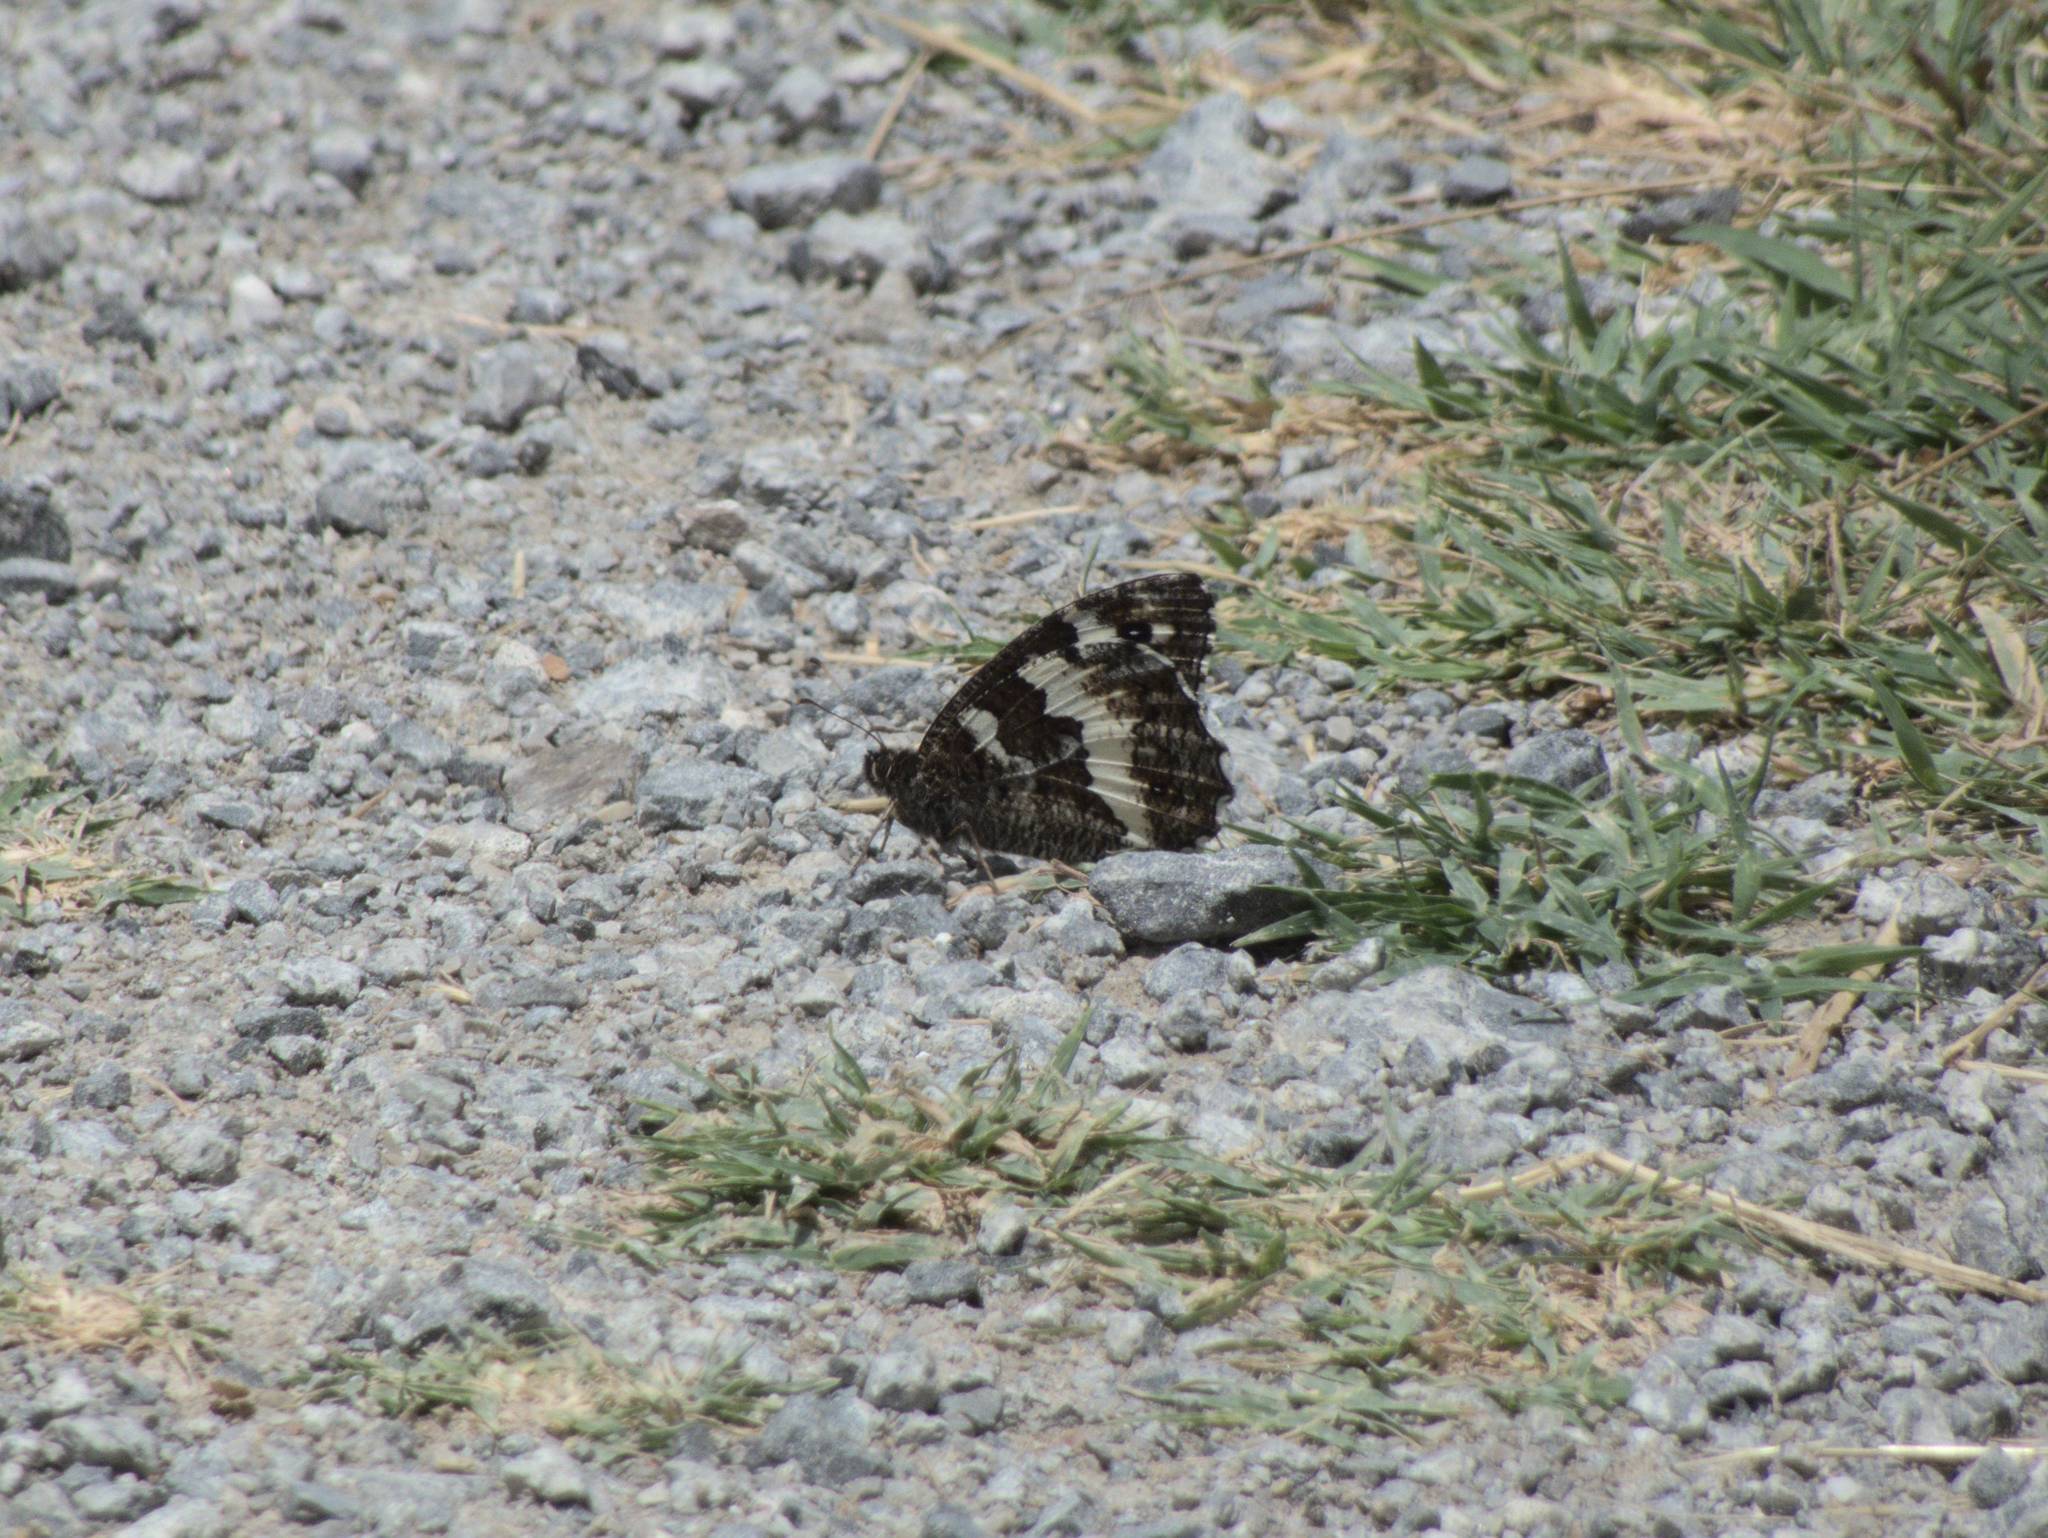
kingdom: Animalia
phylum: Arthropoda
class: Insecta
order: Lepidoptera
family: Lycaenidae
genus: Loweia
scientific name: Loweia tityrus
